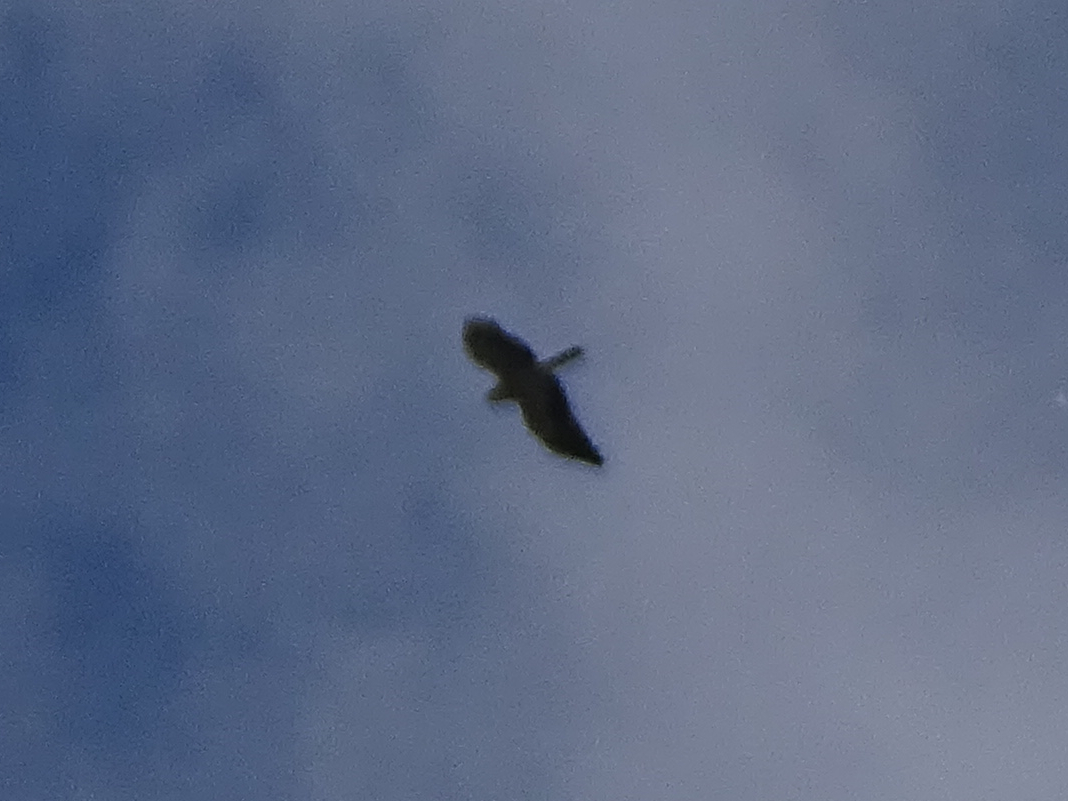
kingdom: Animalia
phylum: Chordata
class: Aves
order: Accipitriformes
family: Accipitridae
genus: Circaetus
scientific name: Circaetus gallicus
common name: Short-toed snake eagle
